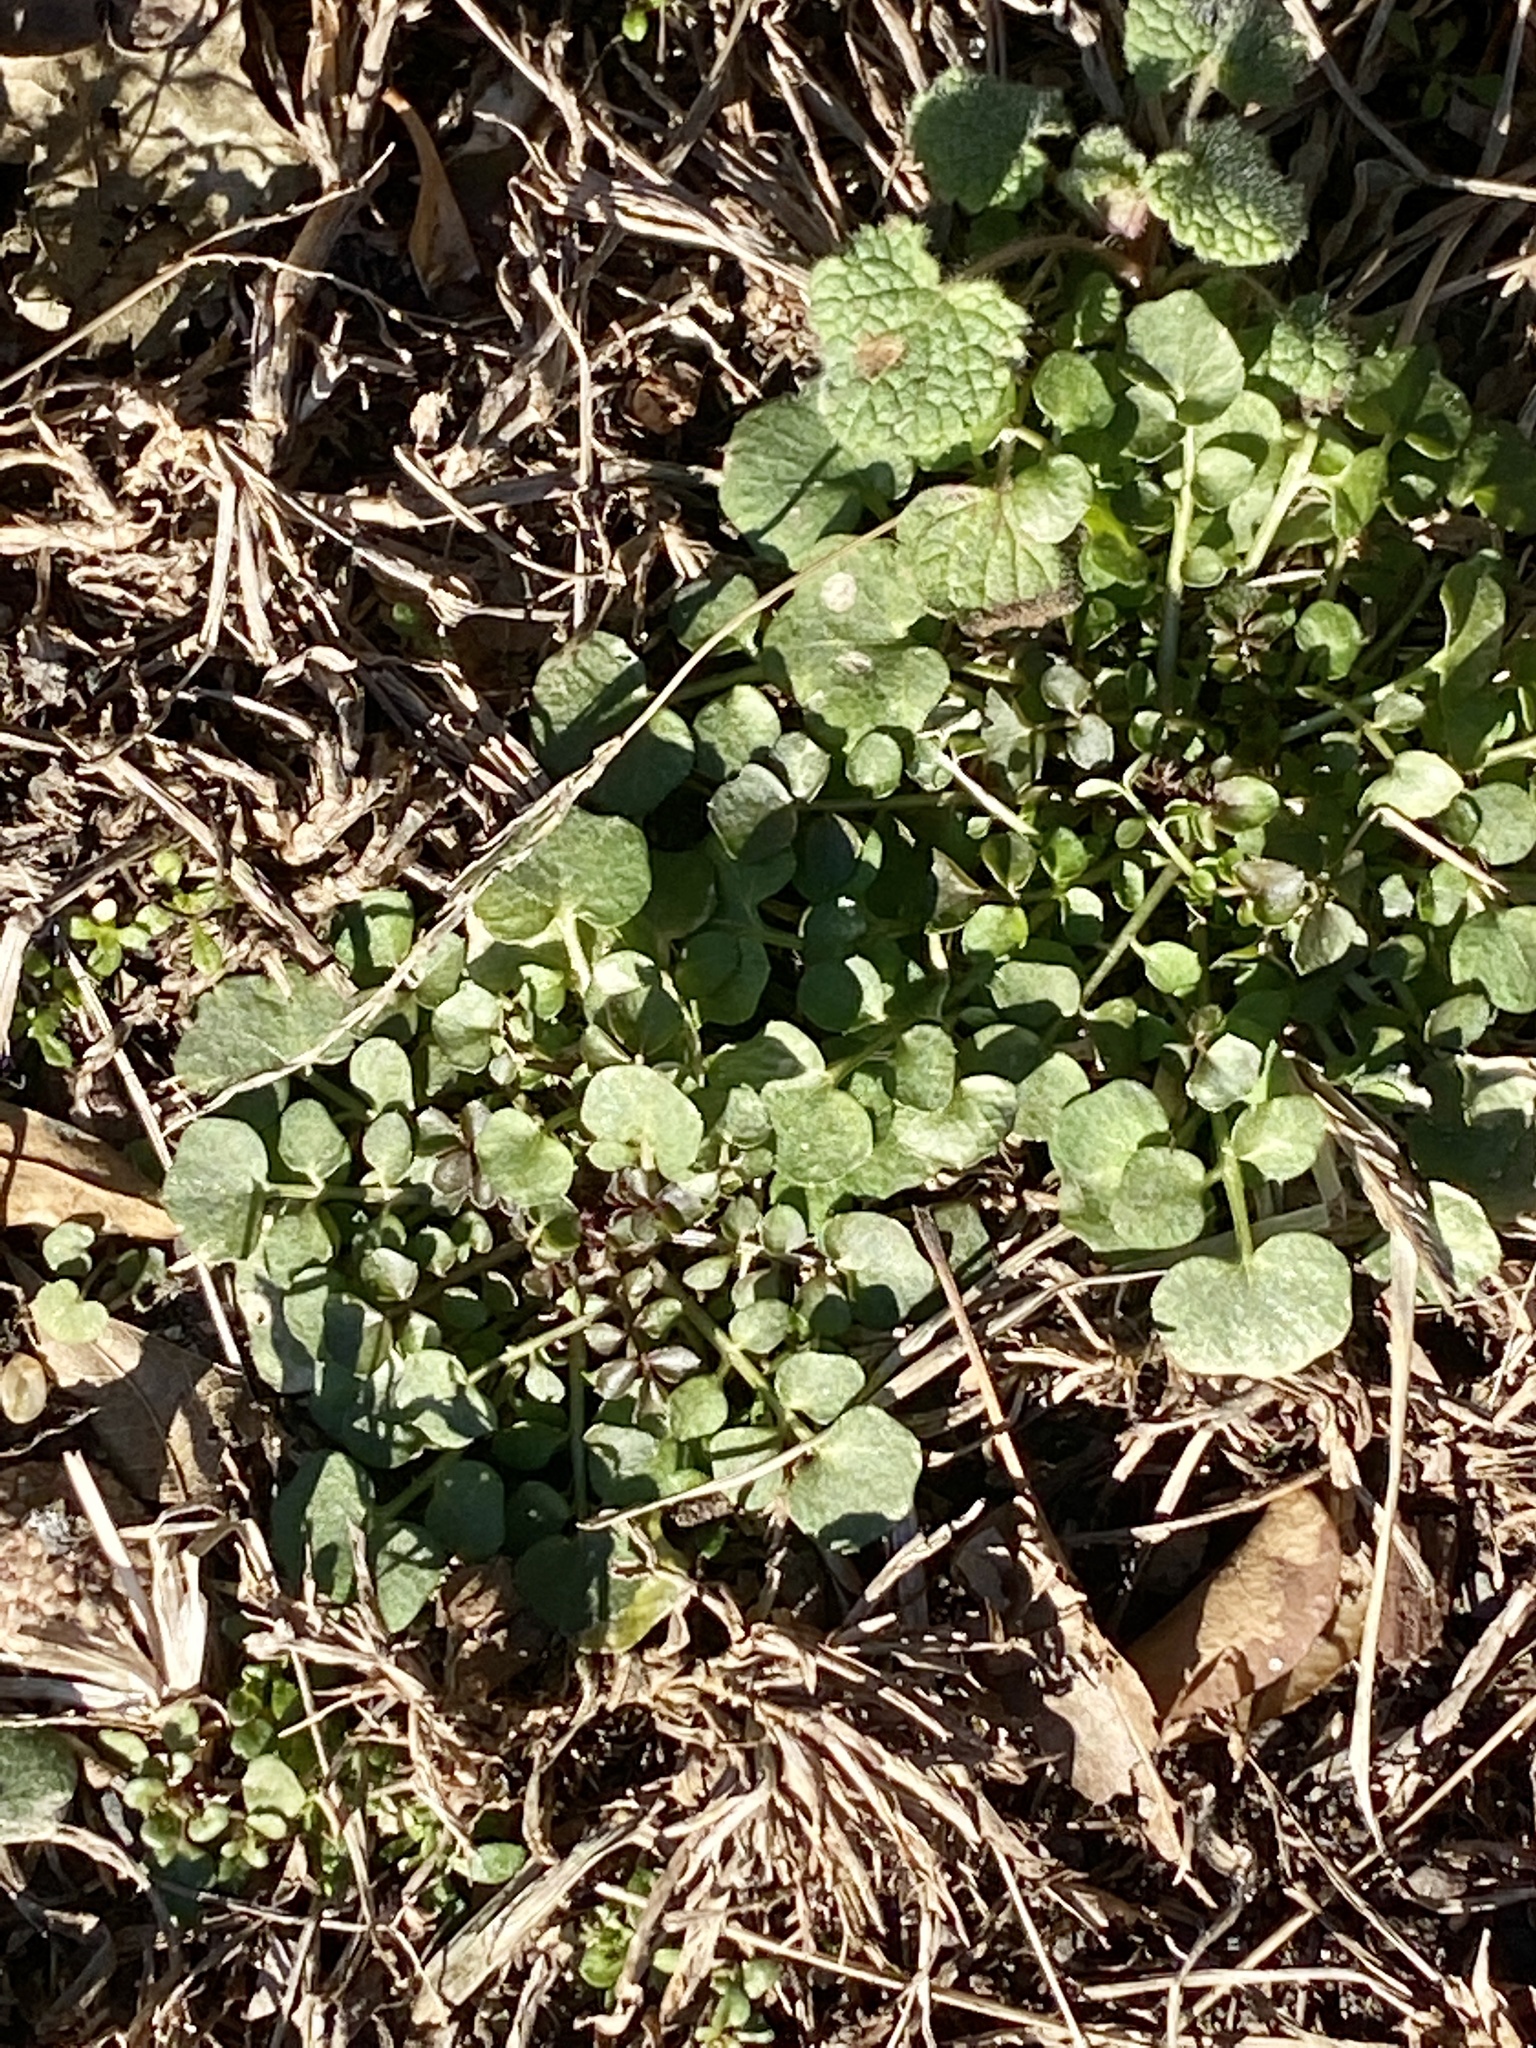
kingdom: Plantae
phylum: Tracheophyta
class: Magnoliopsida
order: Brassicales
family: Brassicaceae
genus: Cardamine
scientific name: Cardamine hirsuta
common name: Hairy bittercress
